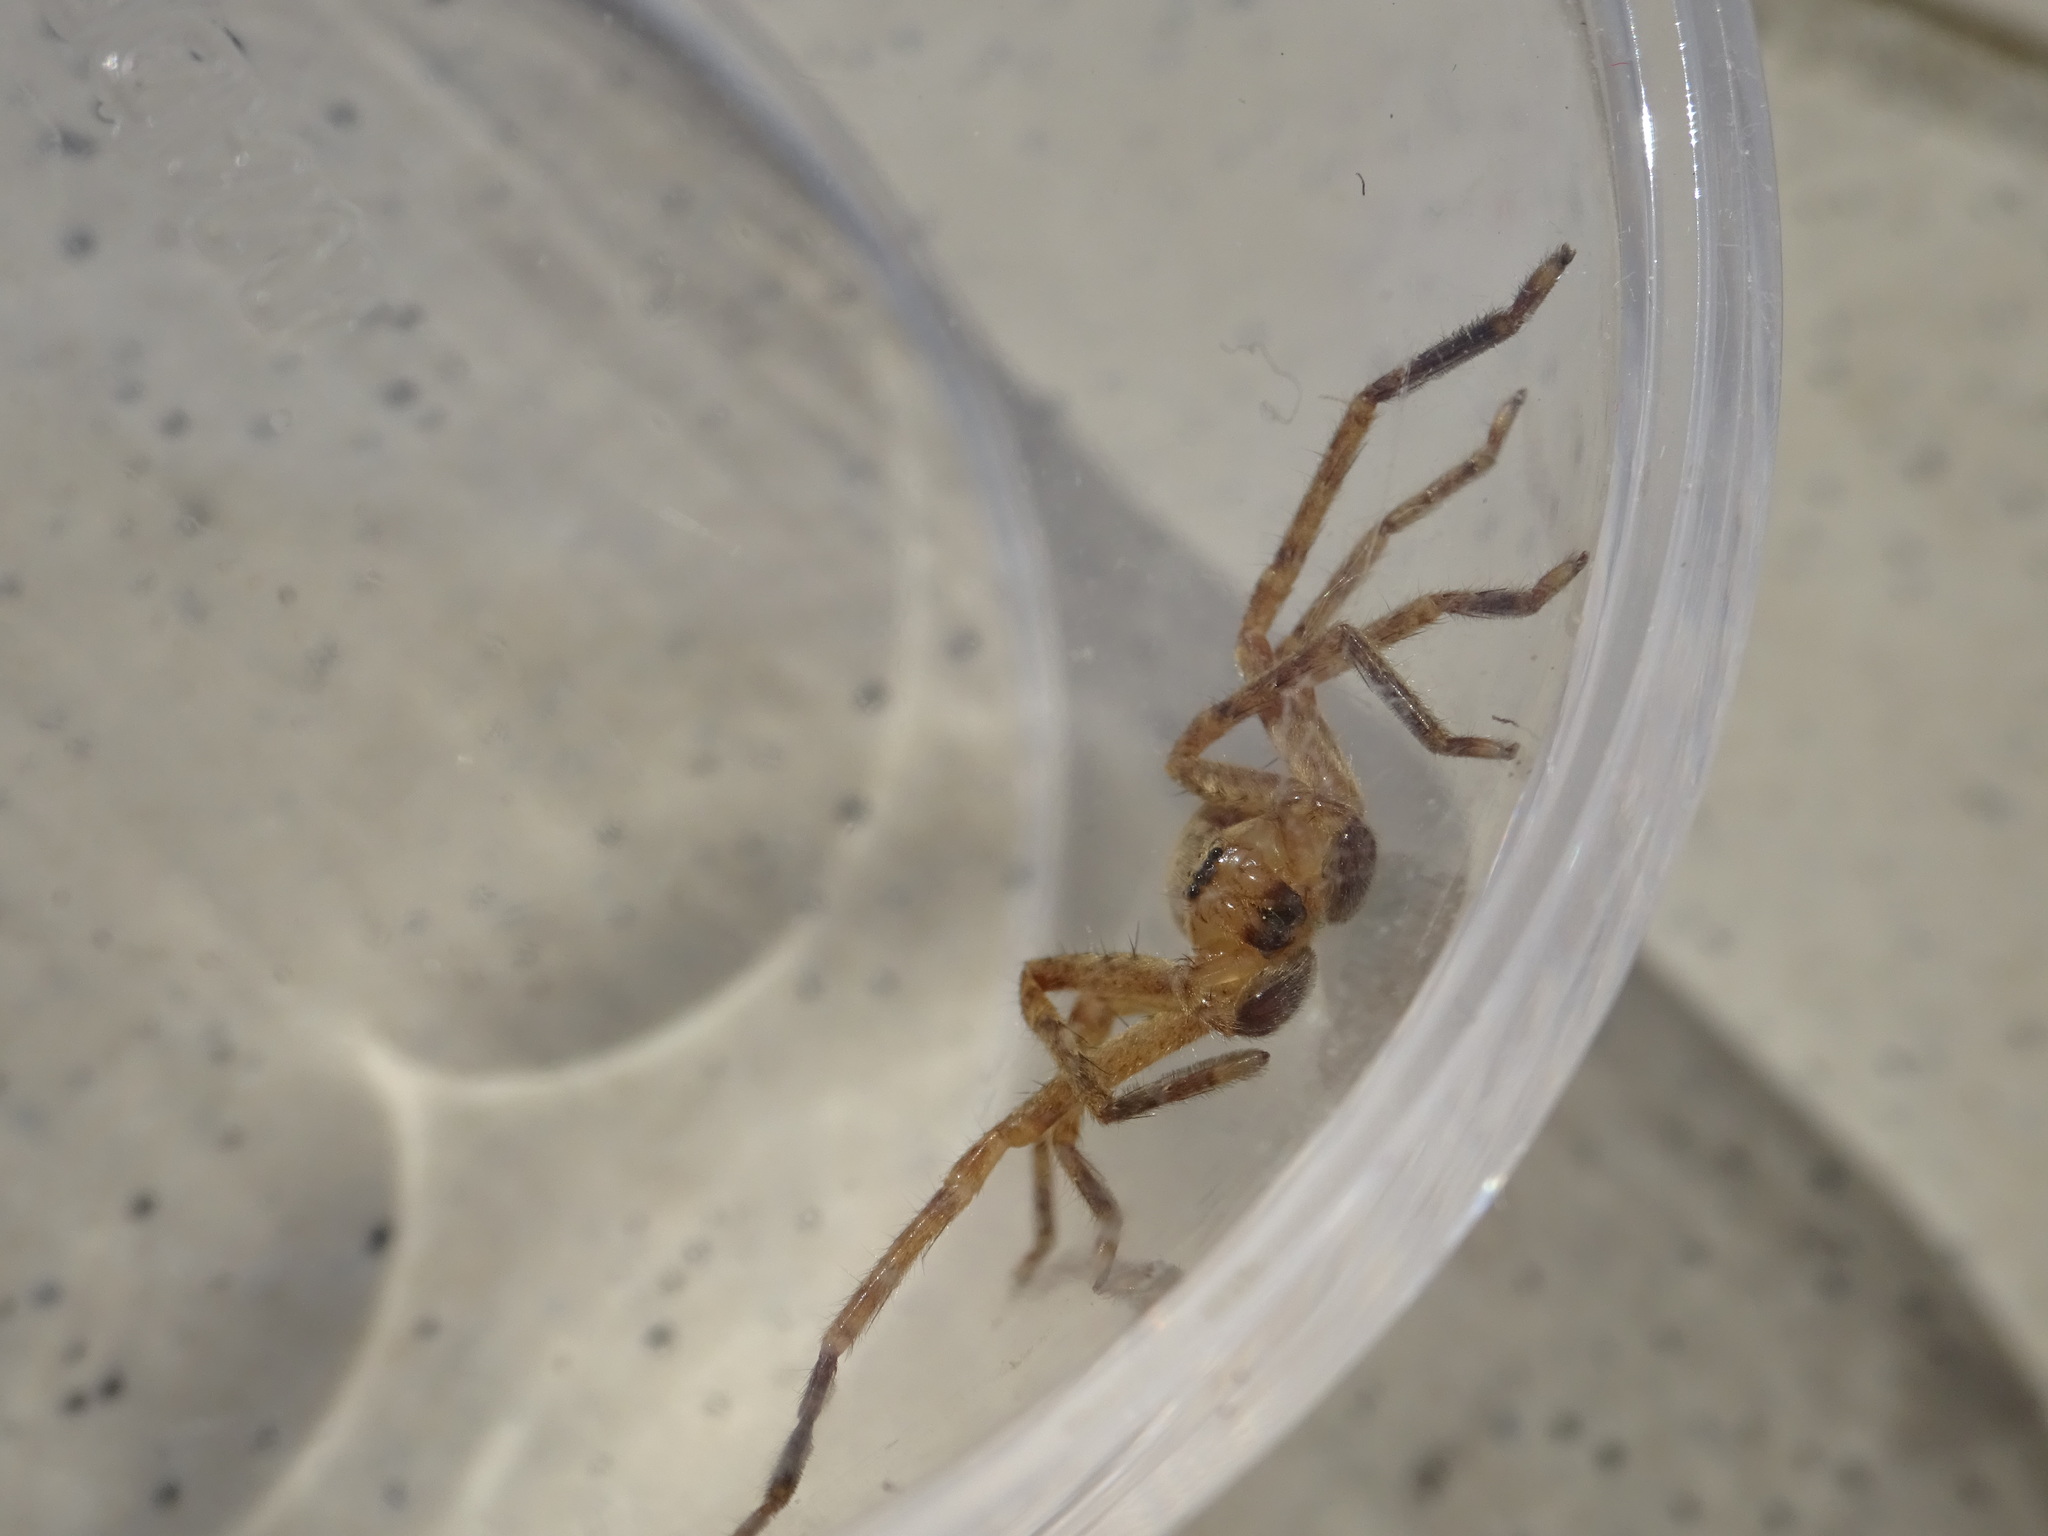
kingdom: Animalia
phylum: Arthropoda
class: Arachnida
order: Araneae
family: Sparassidae
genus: Olios
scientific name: Olios argelasius
